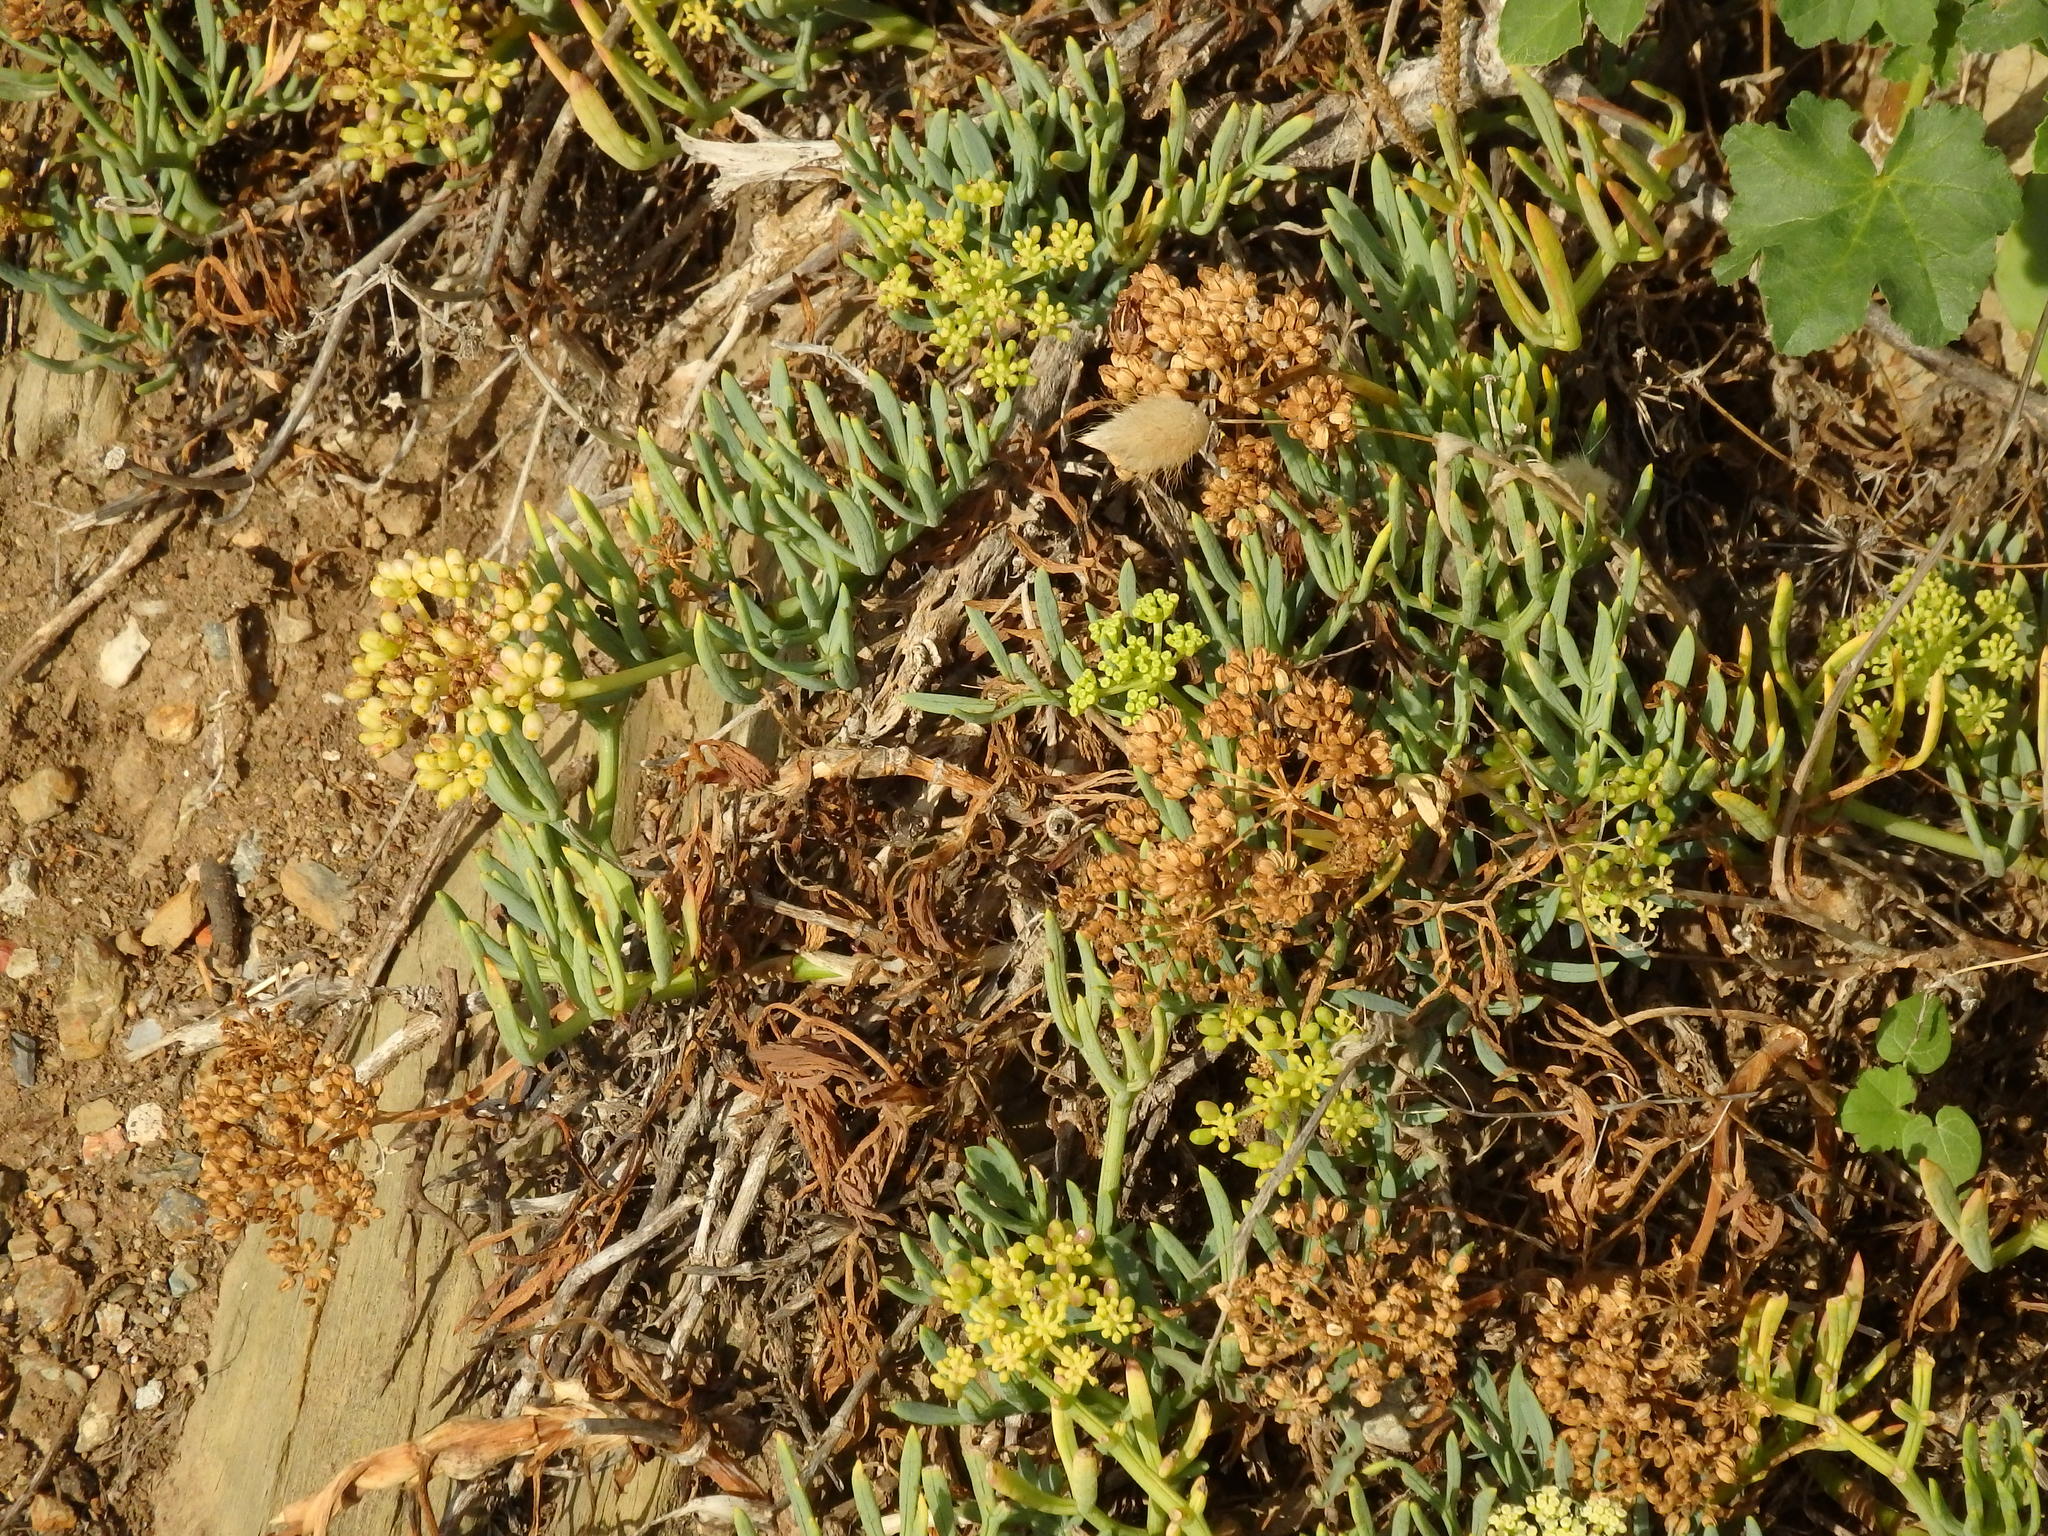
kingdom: Plantae
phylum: Tracheophyta
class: Magnoliopsida
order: Apiales
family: Apiaceae
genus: Crithmum
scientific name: Crithmum maritimum
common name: Rock samphire
